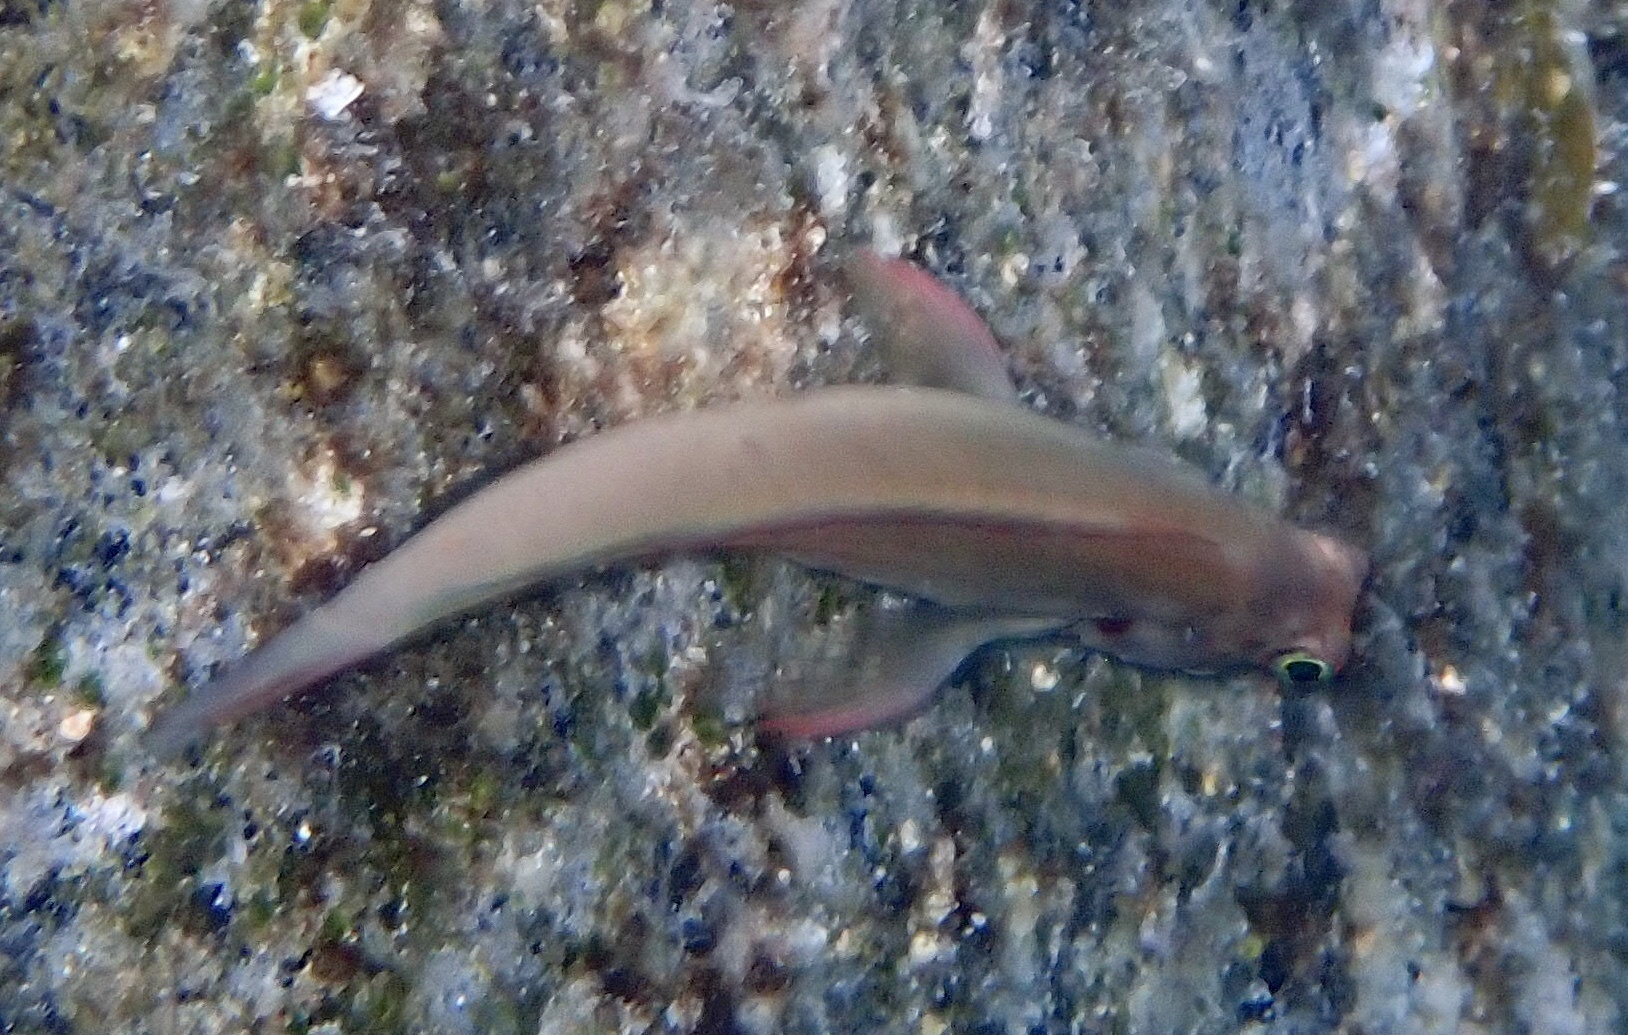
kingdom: Animalia
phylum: Chordata
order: Perciformes
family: Blenniidae
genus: Ophioblennius
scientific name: Ophioblennius macclurei
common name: Redlip blenny
